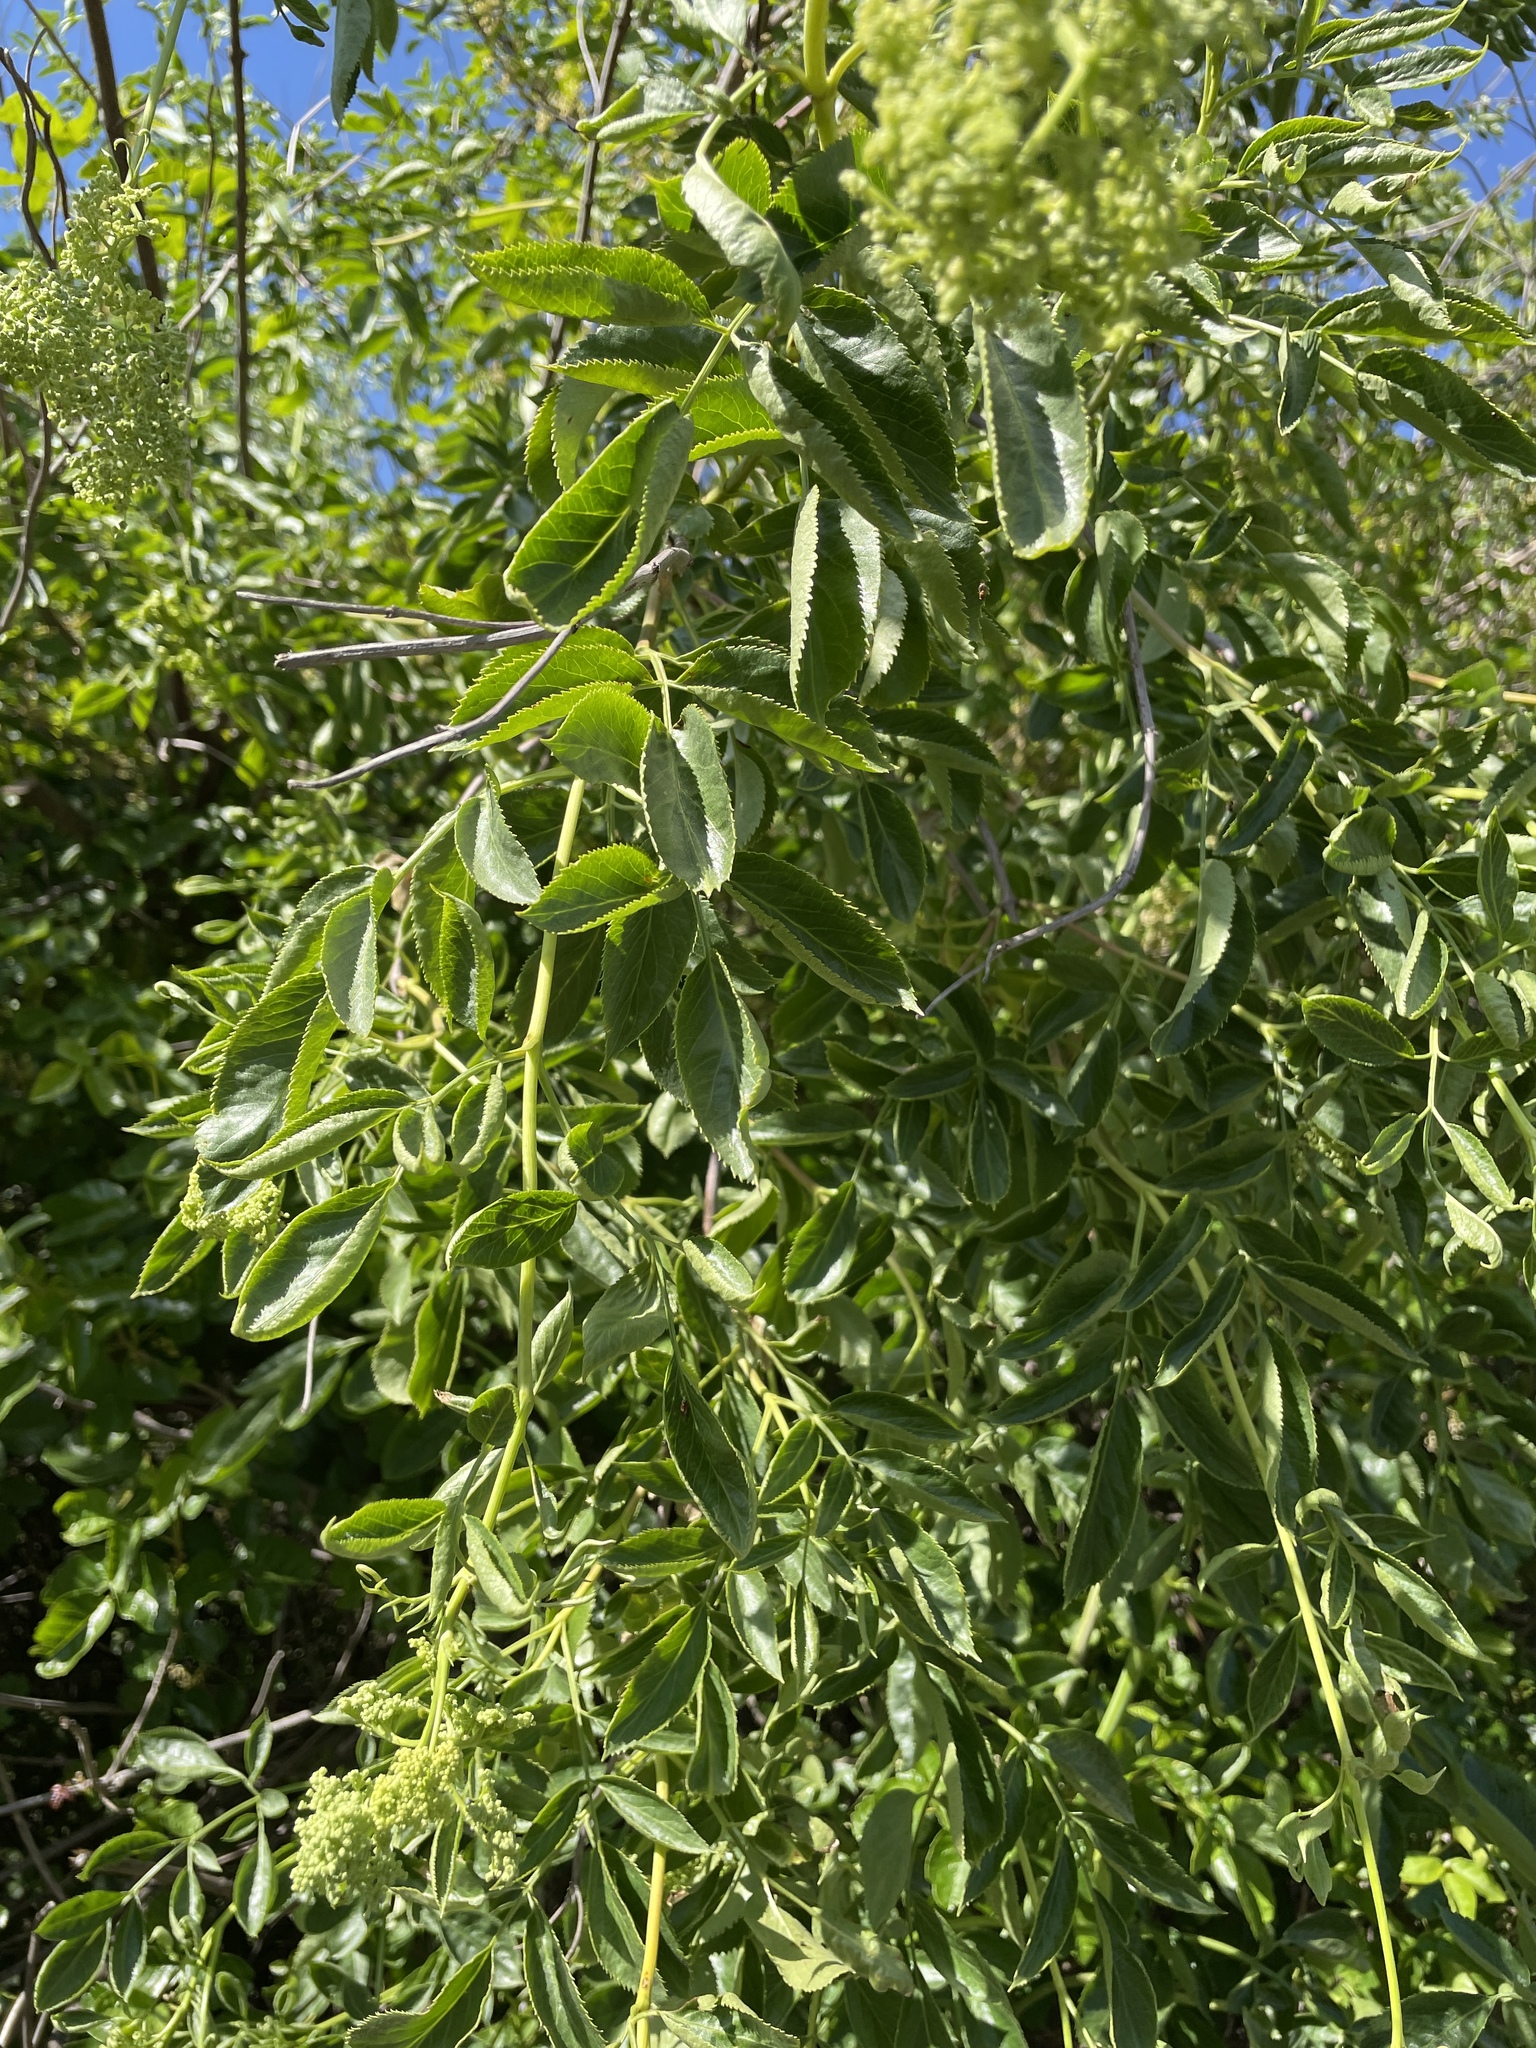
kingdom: Plantae
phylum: Tracheophyta
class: Magnoliopsida
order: Dipsacales
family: Viburnaceae
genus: Sambucus
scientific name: Sambucus cerulea
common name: Blue elder
